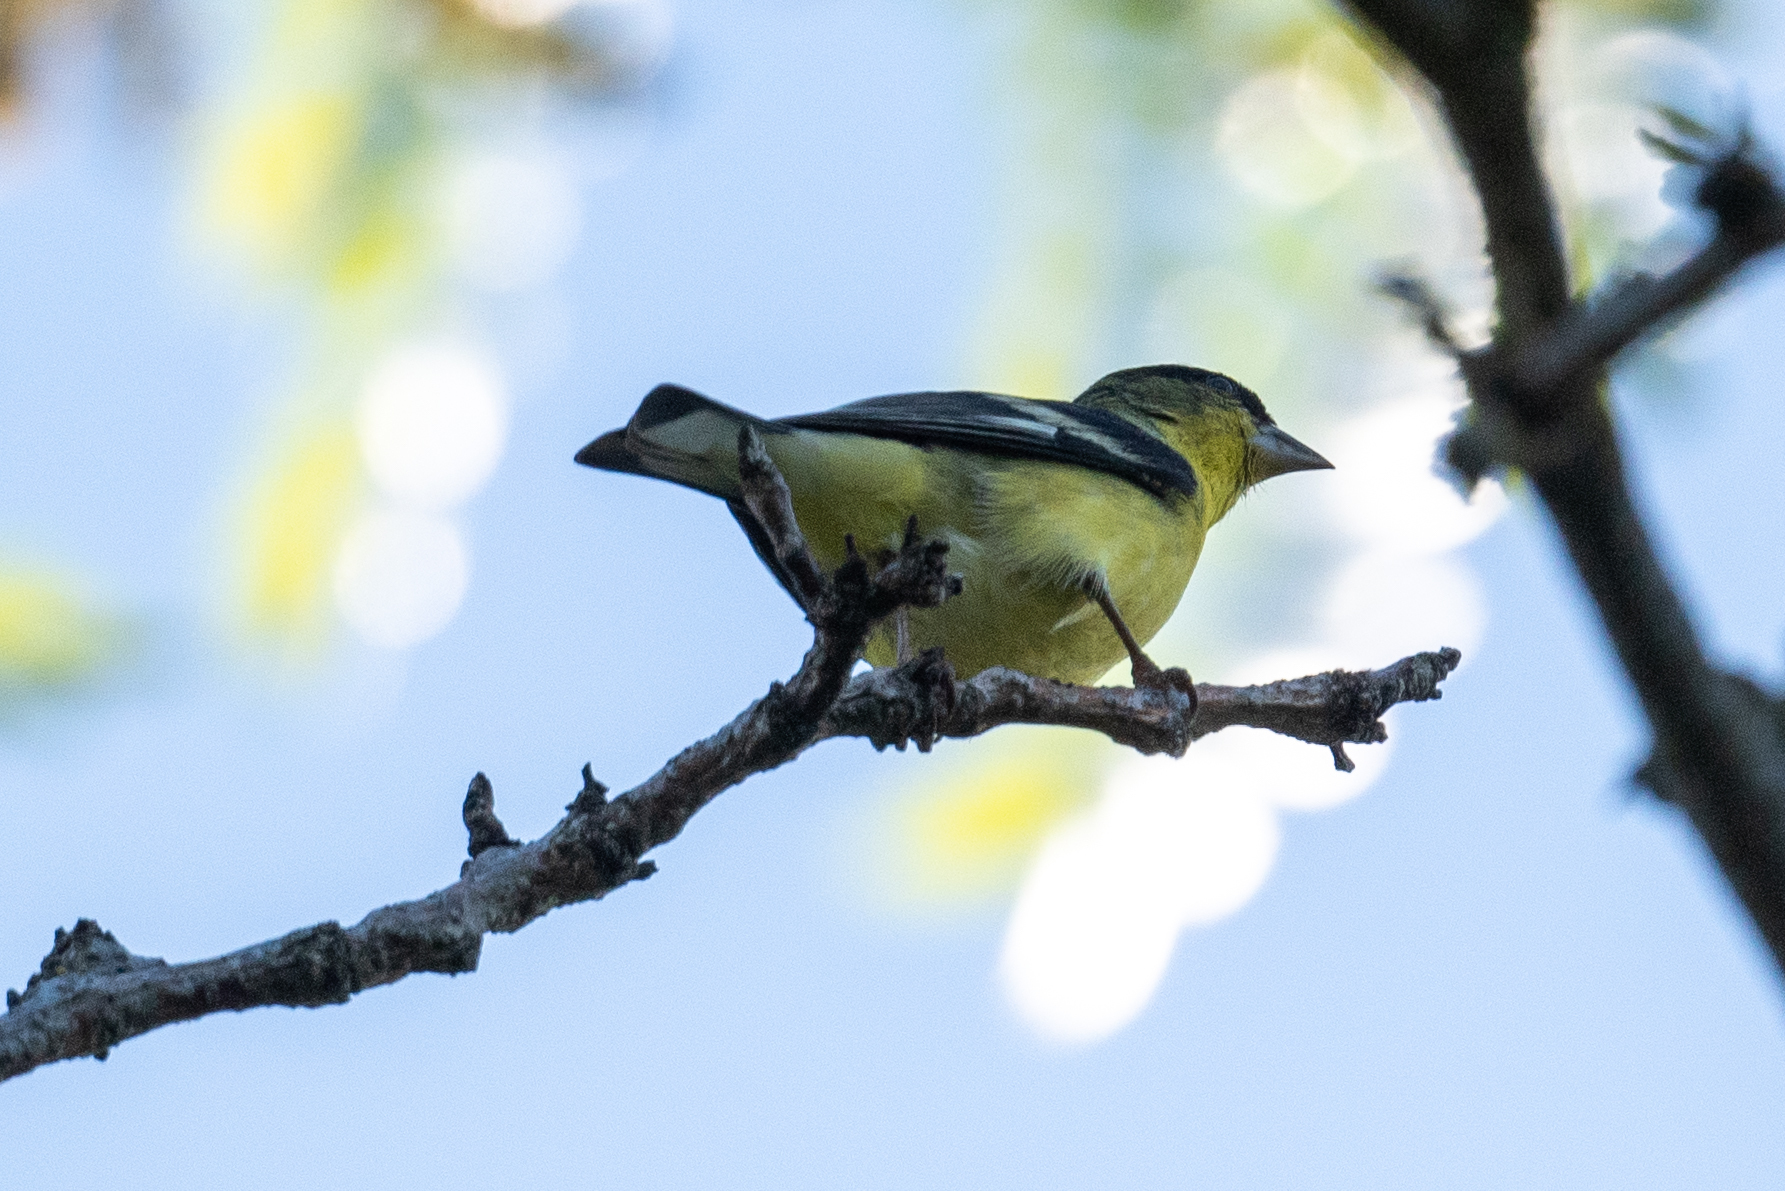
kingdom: Animalia
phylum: Chordata
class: Aves
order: Passeriformes
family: Fringillidae
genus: Spinus
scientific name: Spinus psaltria
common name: Lesser goldfinch
